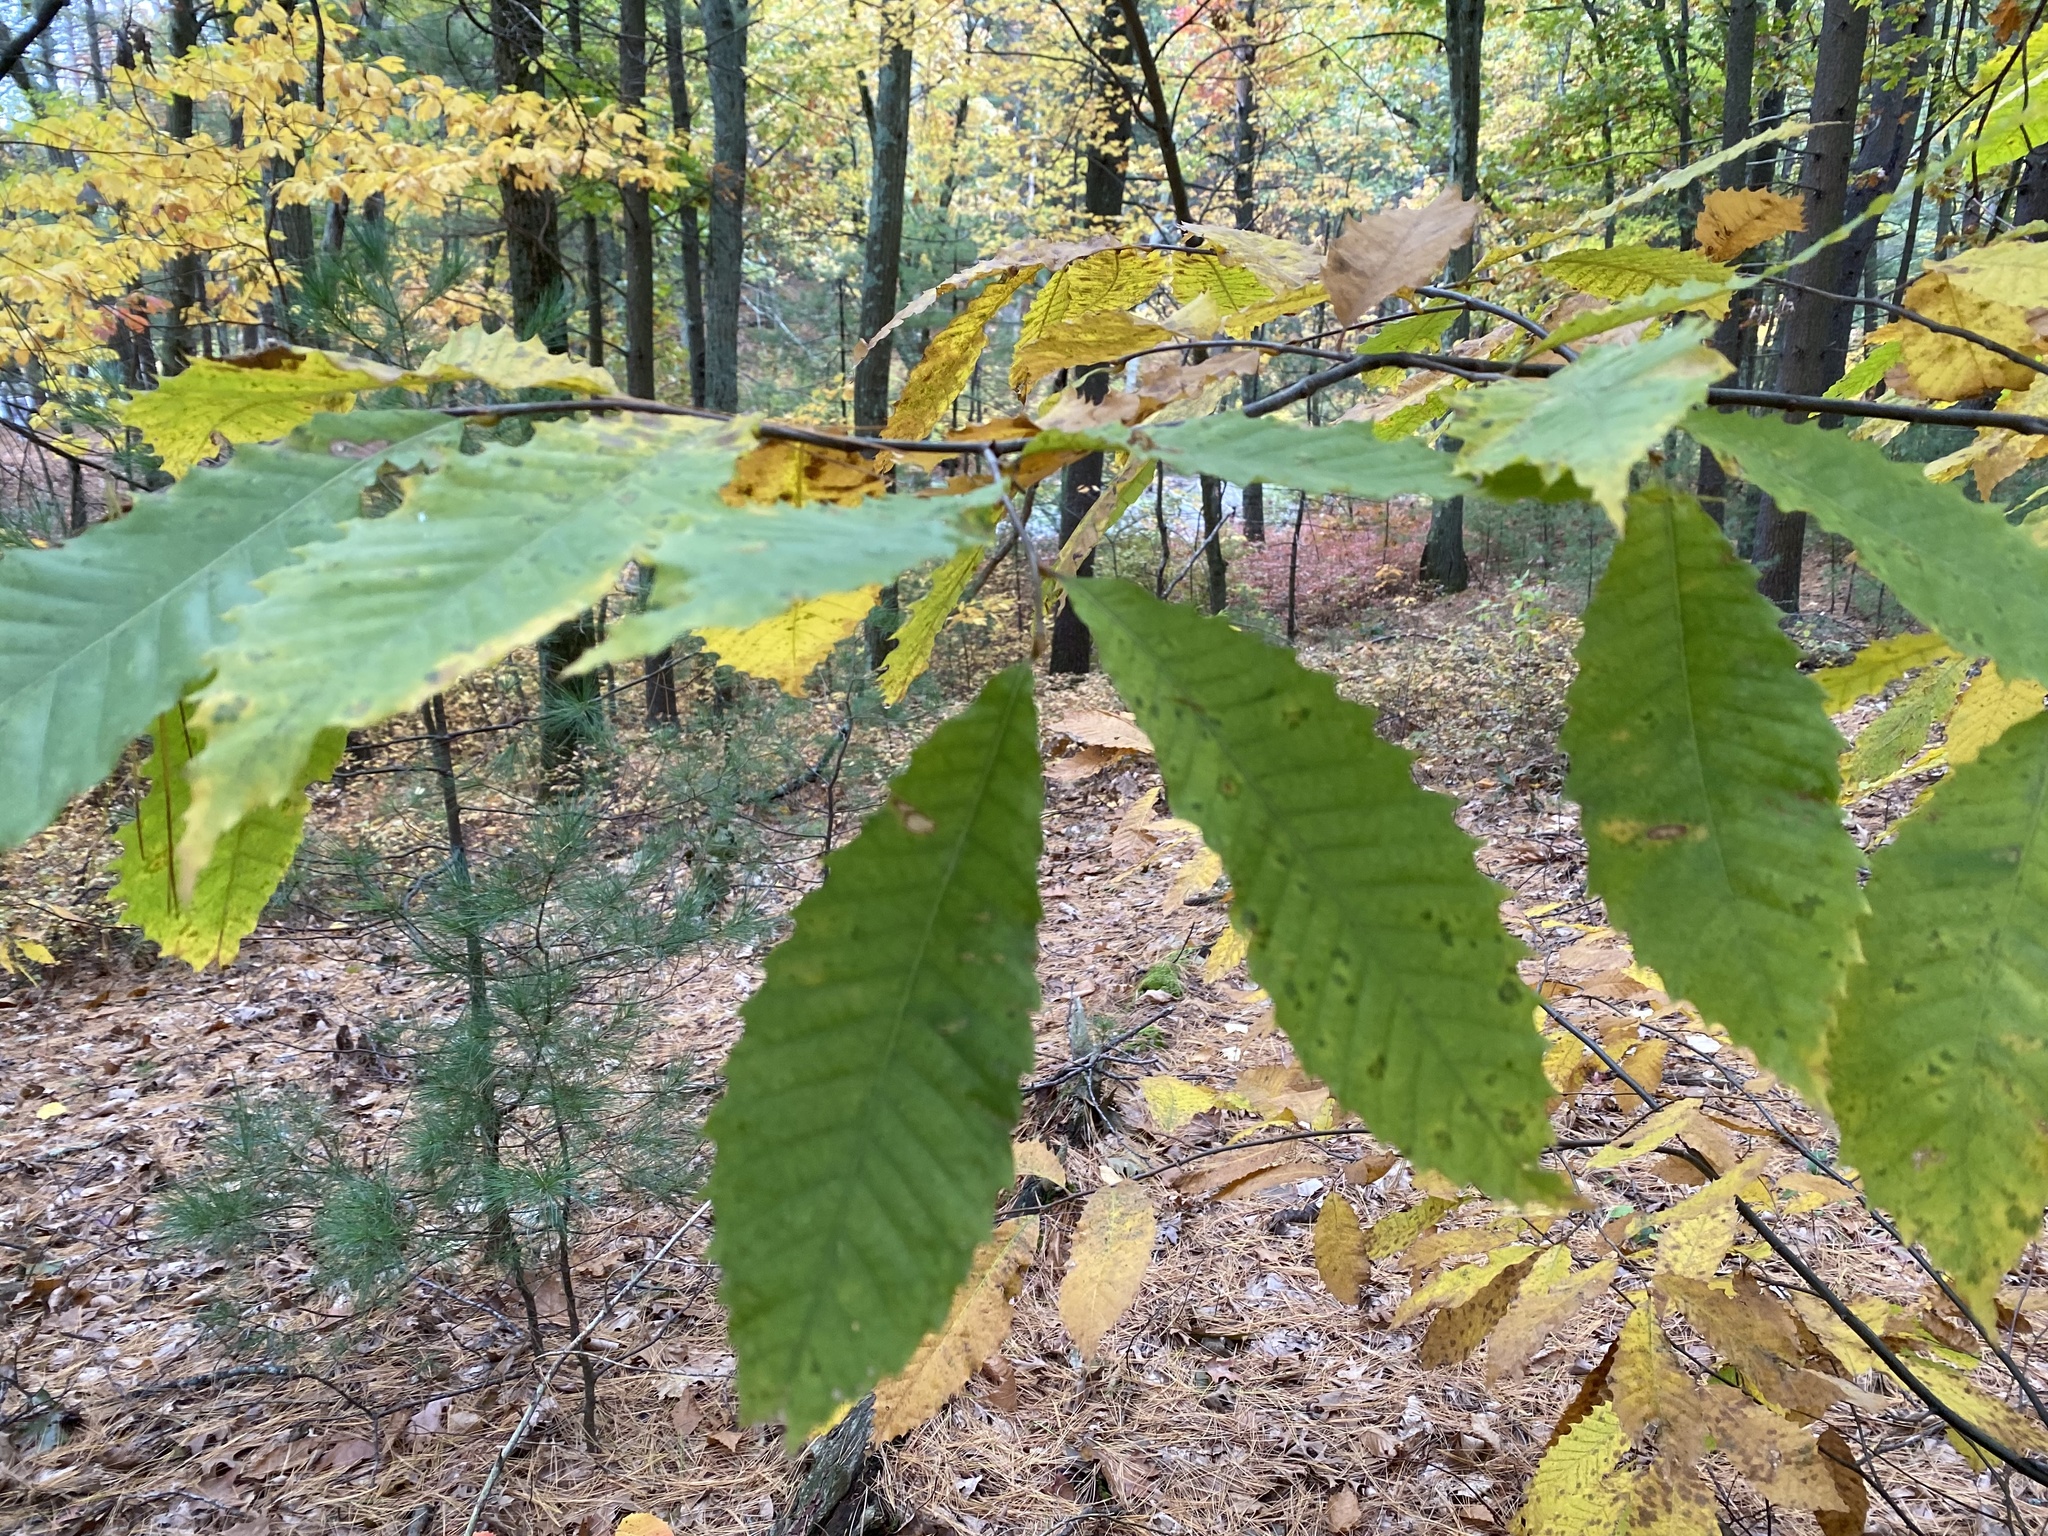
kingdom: Plantae
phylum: Tracheophyta
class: Magnoliopsida
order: Fagales
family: Fagaceae
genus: Castanea
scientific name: Castanea dentata
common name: American chestnut
